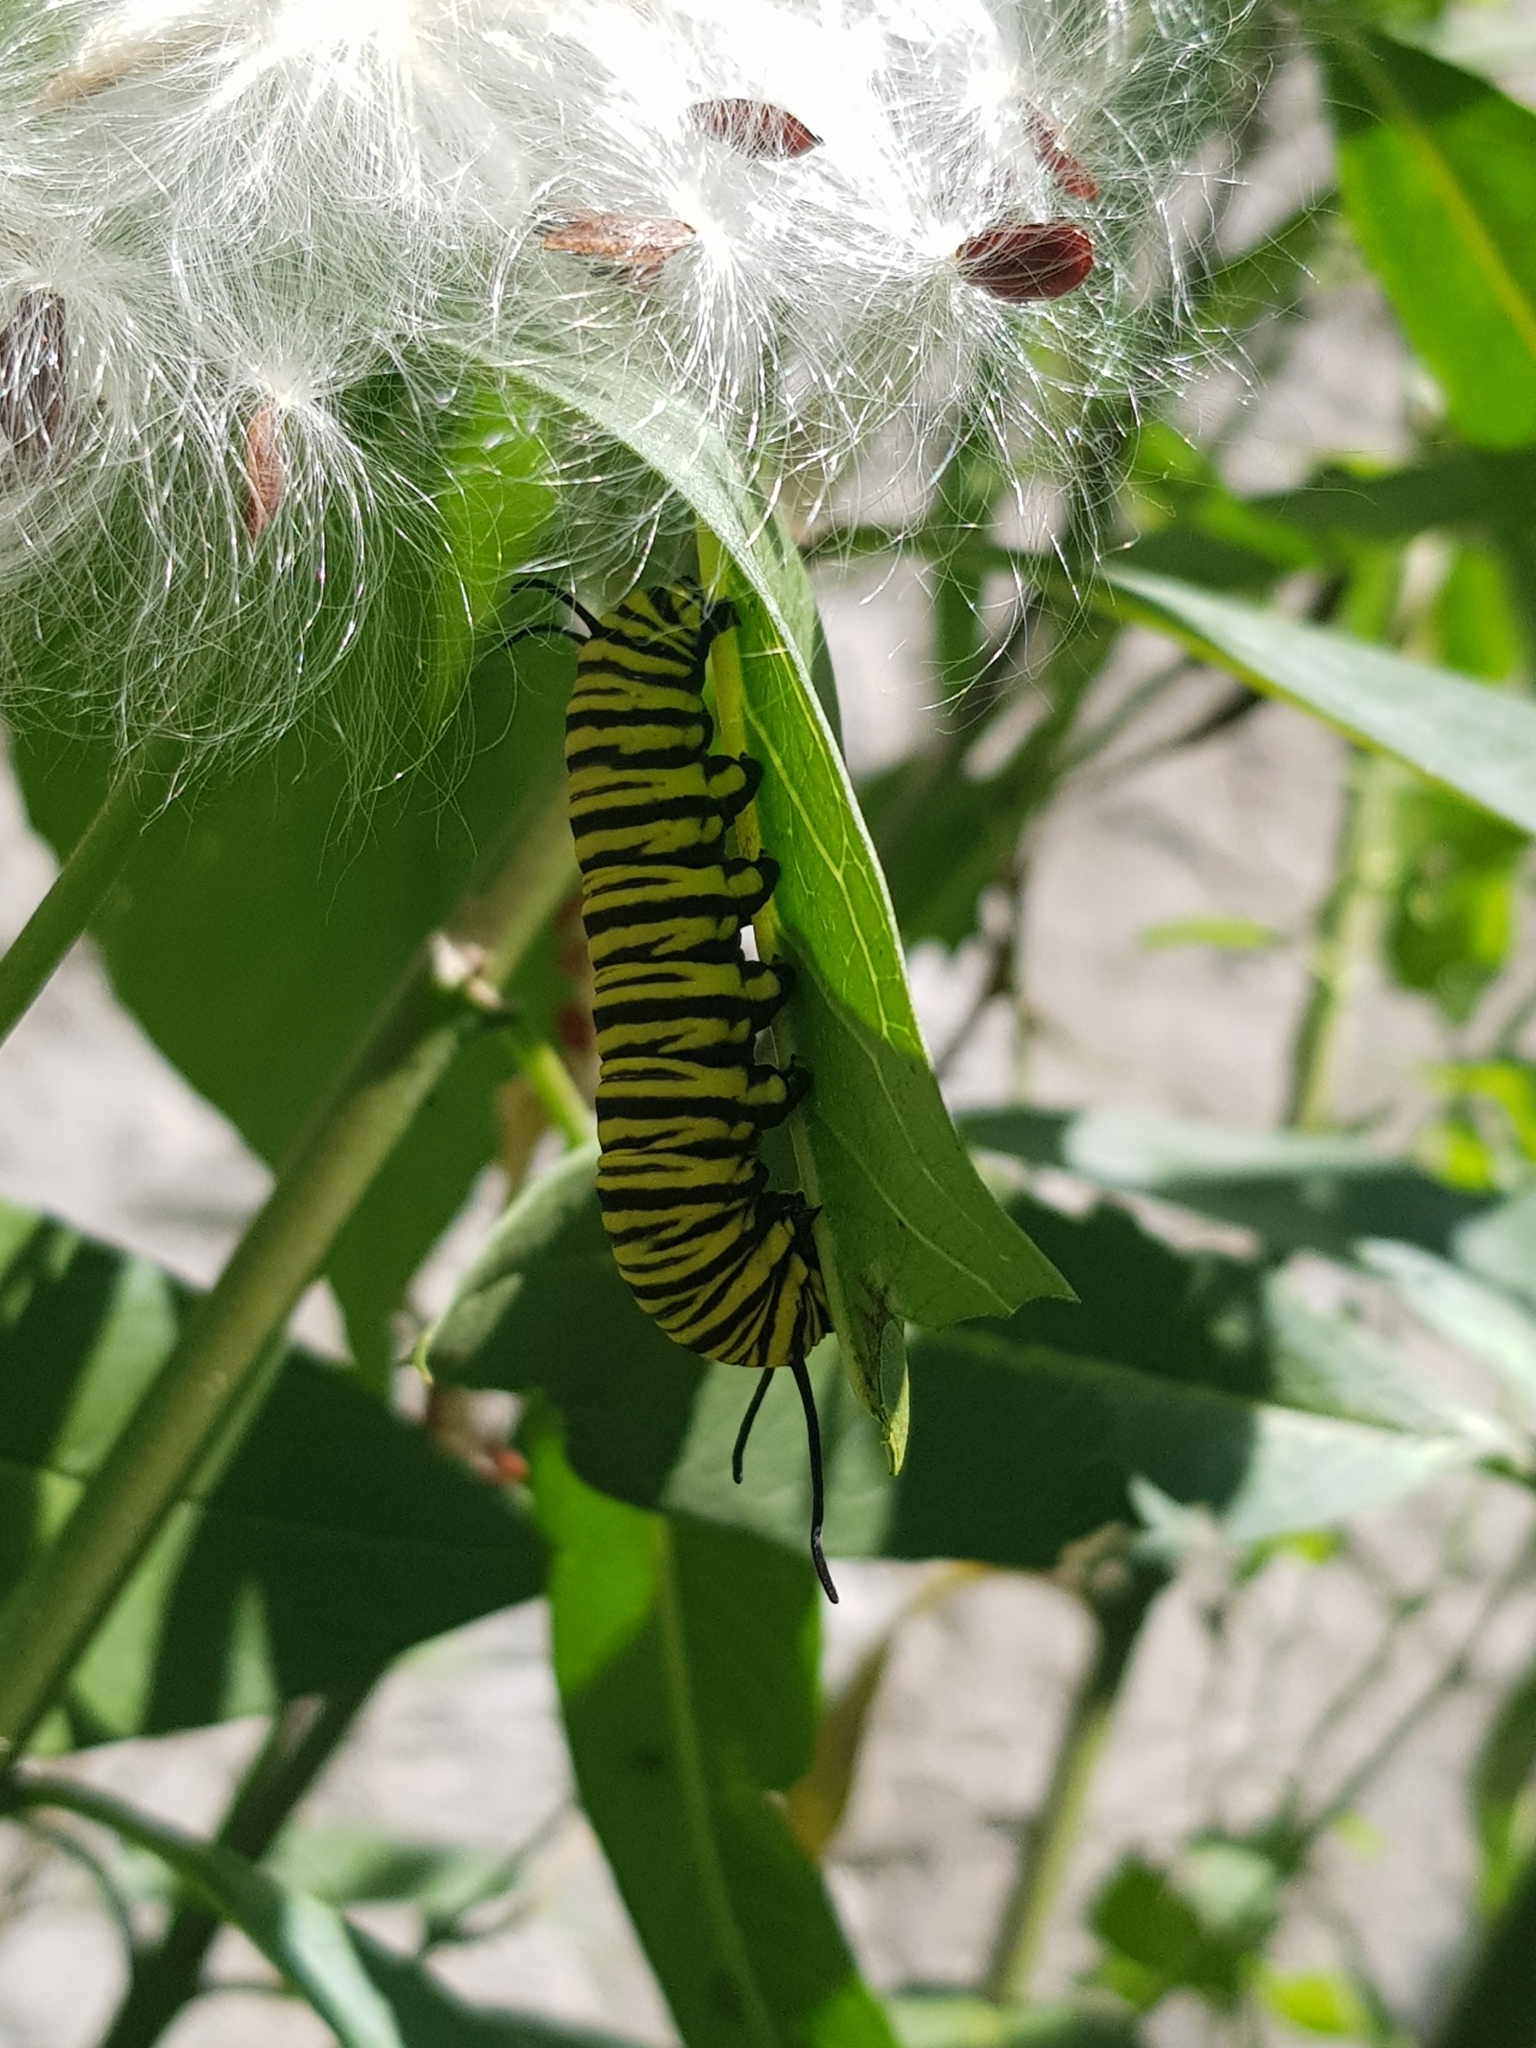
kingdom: Animalia
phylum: Arthropoda
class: Insecta
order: Lepidoptera
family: Nymphalidae
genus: Danaus
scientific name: Danaus erippus
